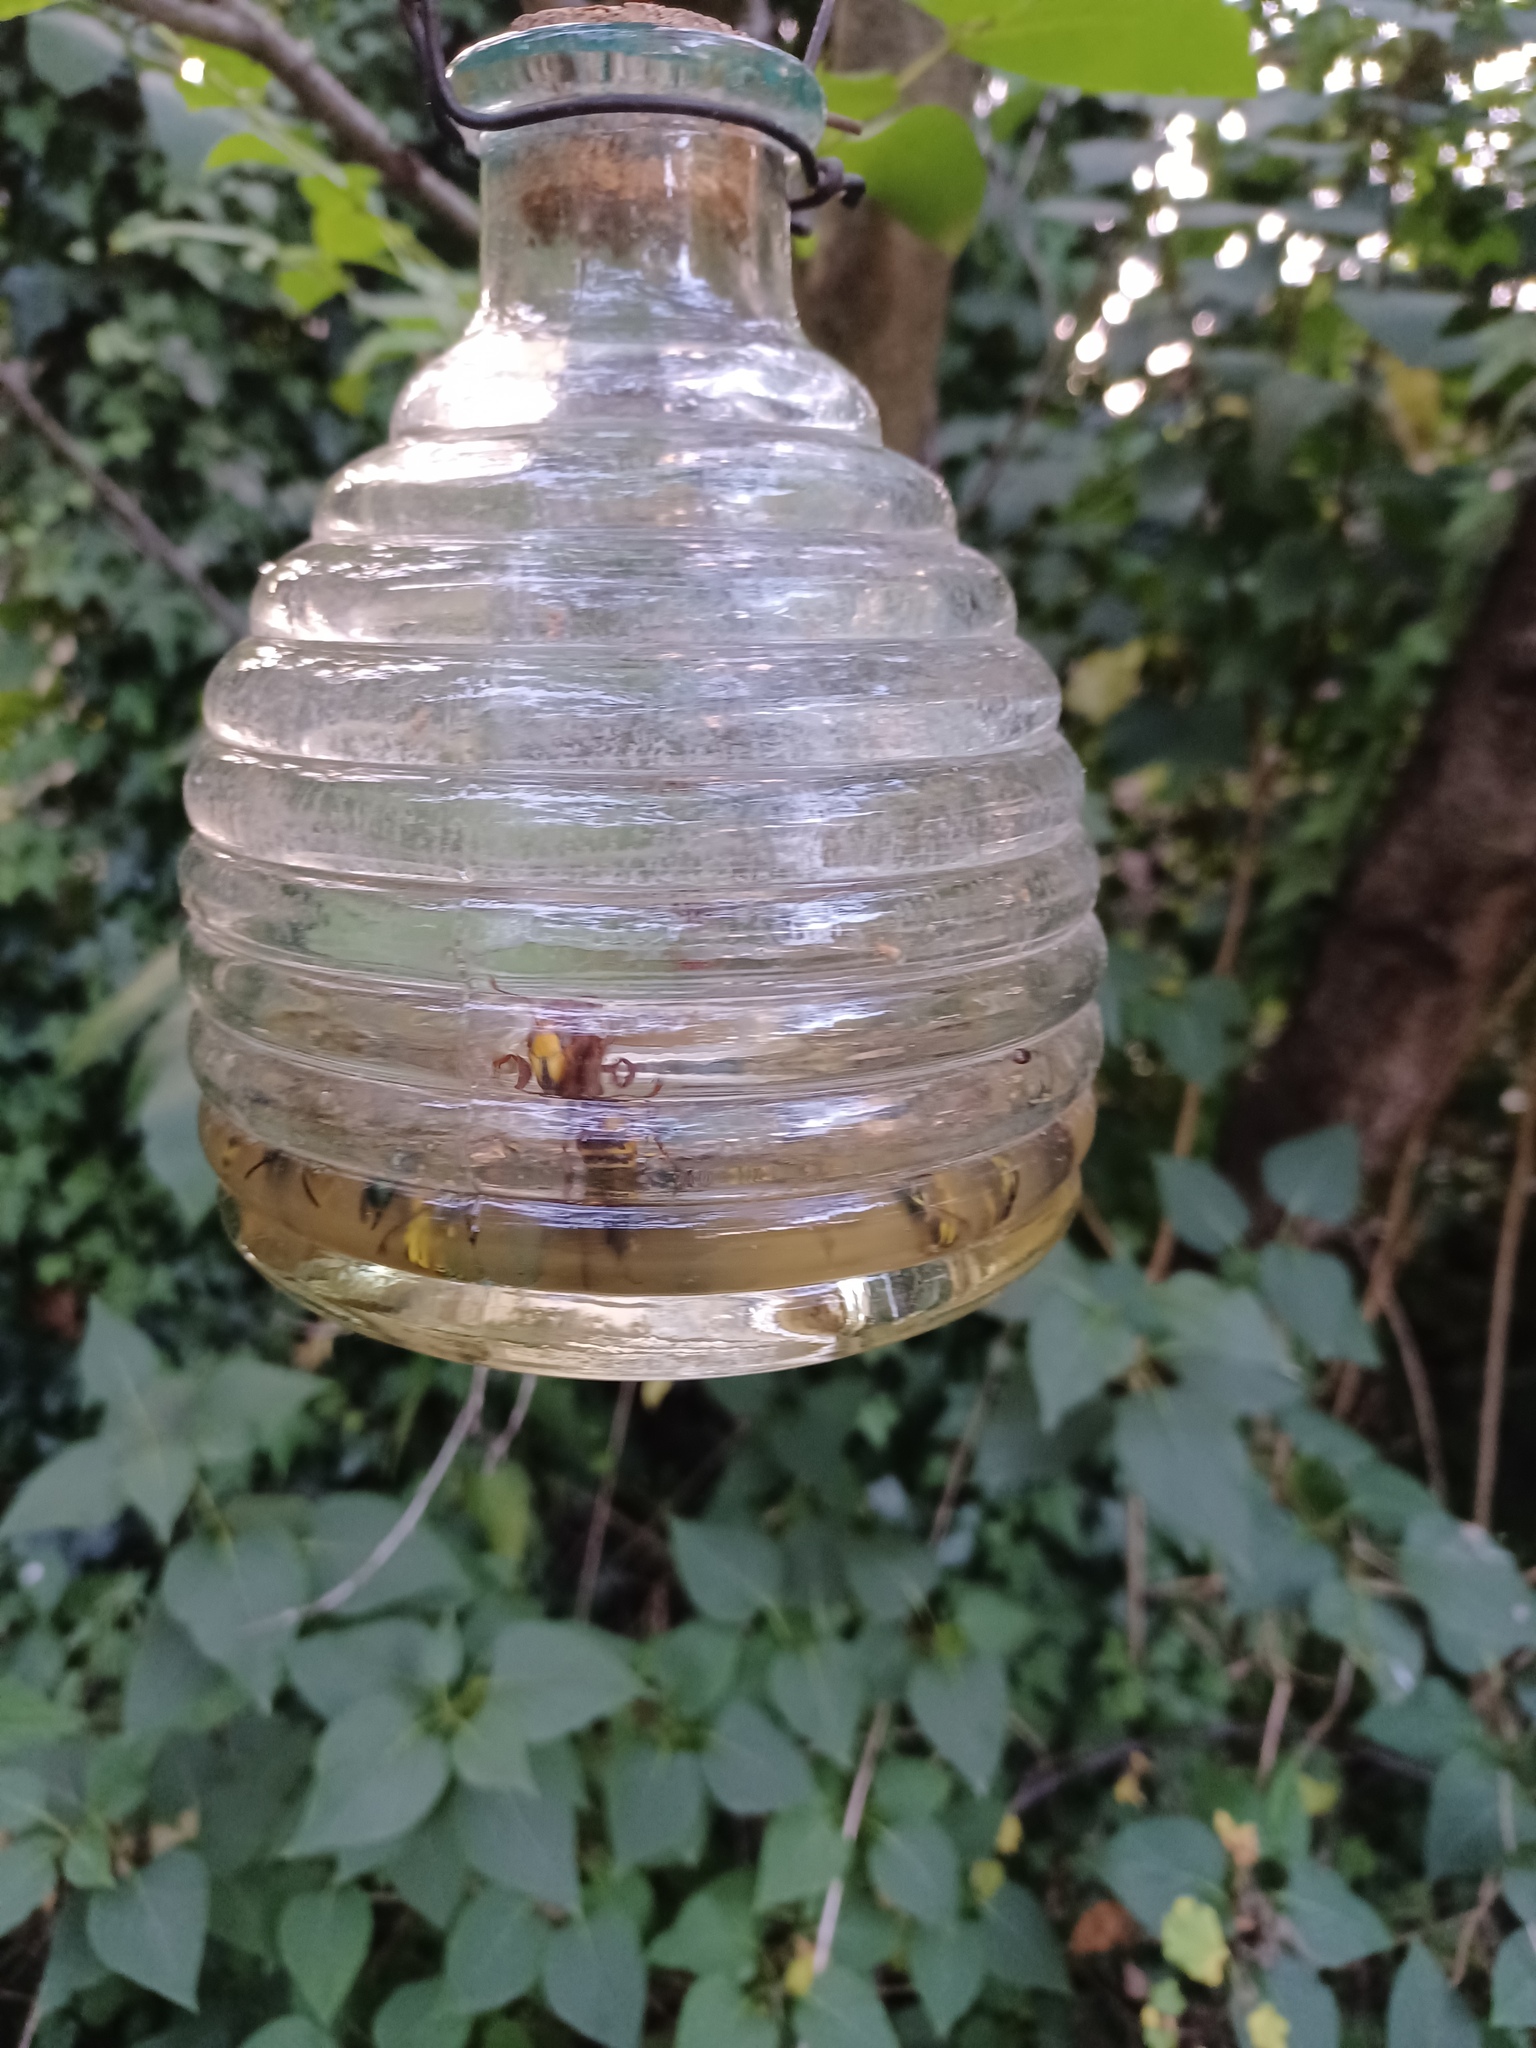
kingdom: Animalia
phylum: Arthropoda
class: Insecta
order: Hymenoptera
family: Vespidae
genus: Vespa
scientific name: Vespa crabro
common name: Hornet
